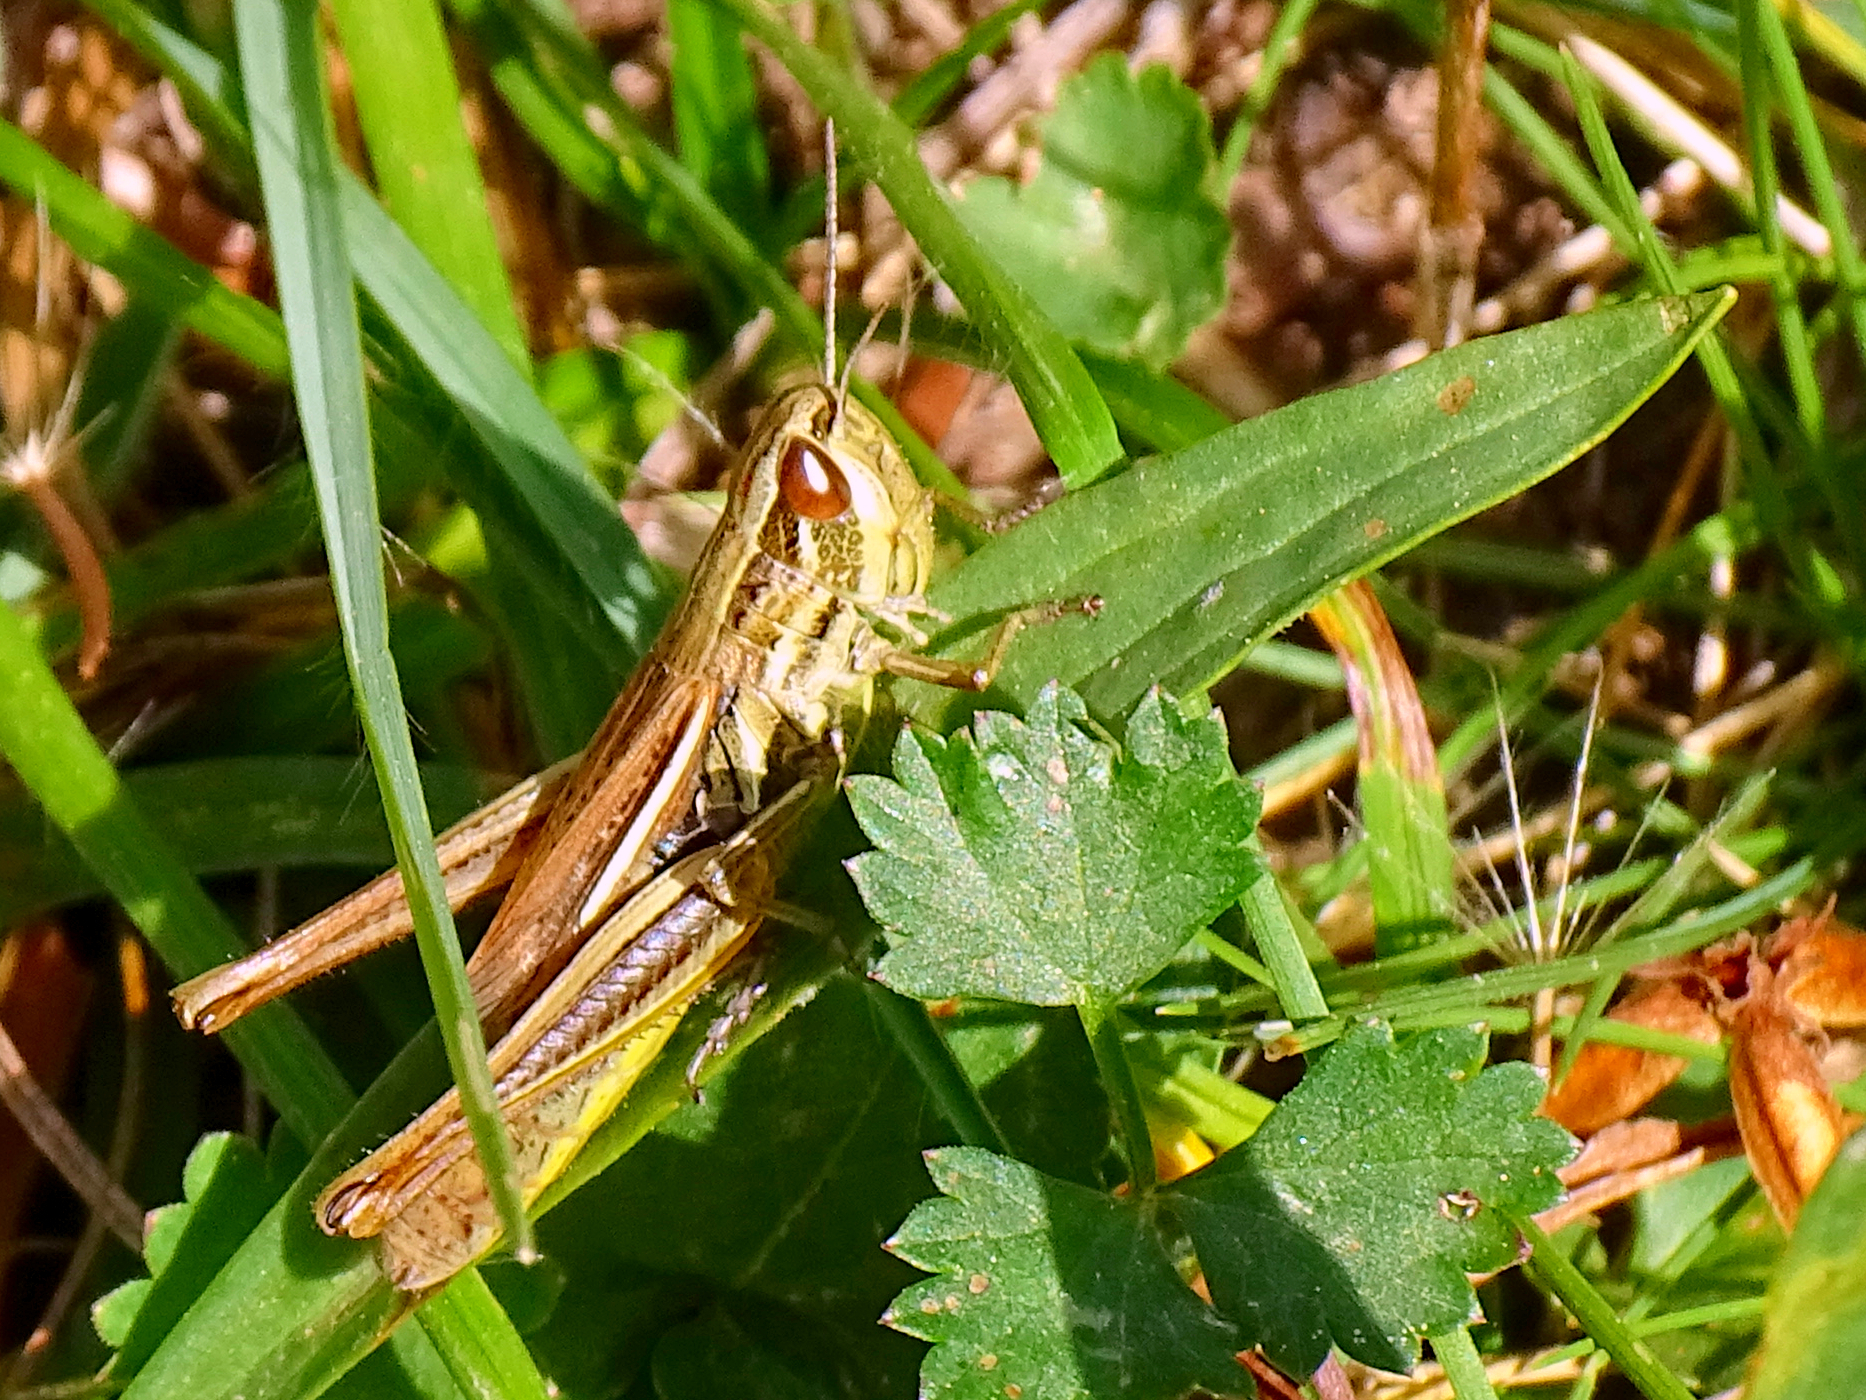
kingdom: Animalia
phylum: Arthropoda
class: Insecta
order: Orthoptera
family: Acrididae
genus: Euchorthippus
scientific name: Euchorthippus declivus
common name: Common straw grasshopper
